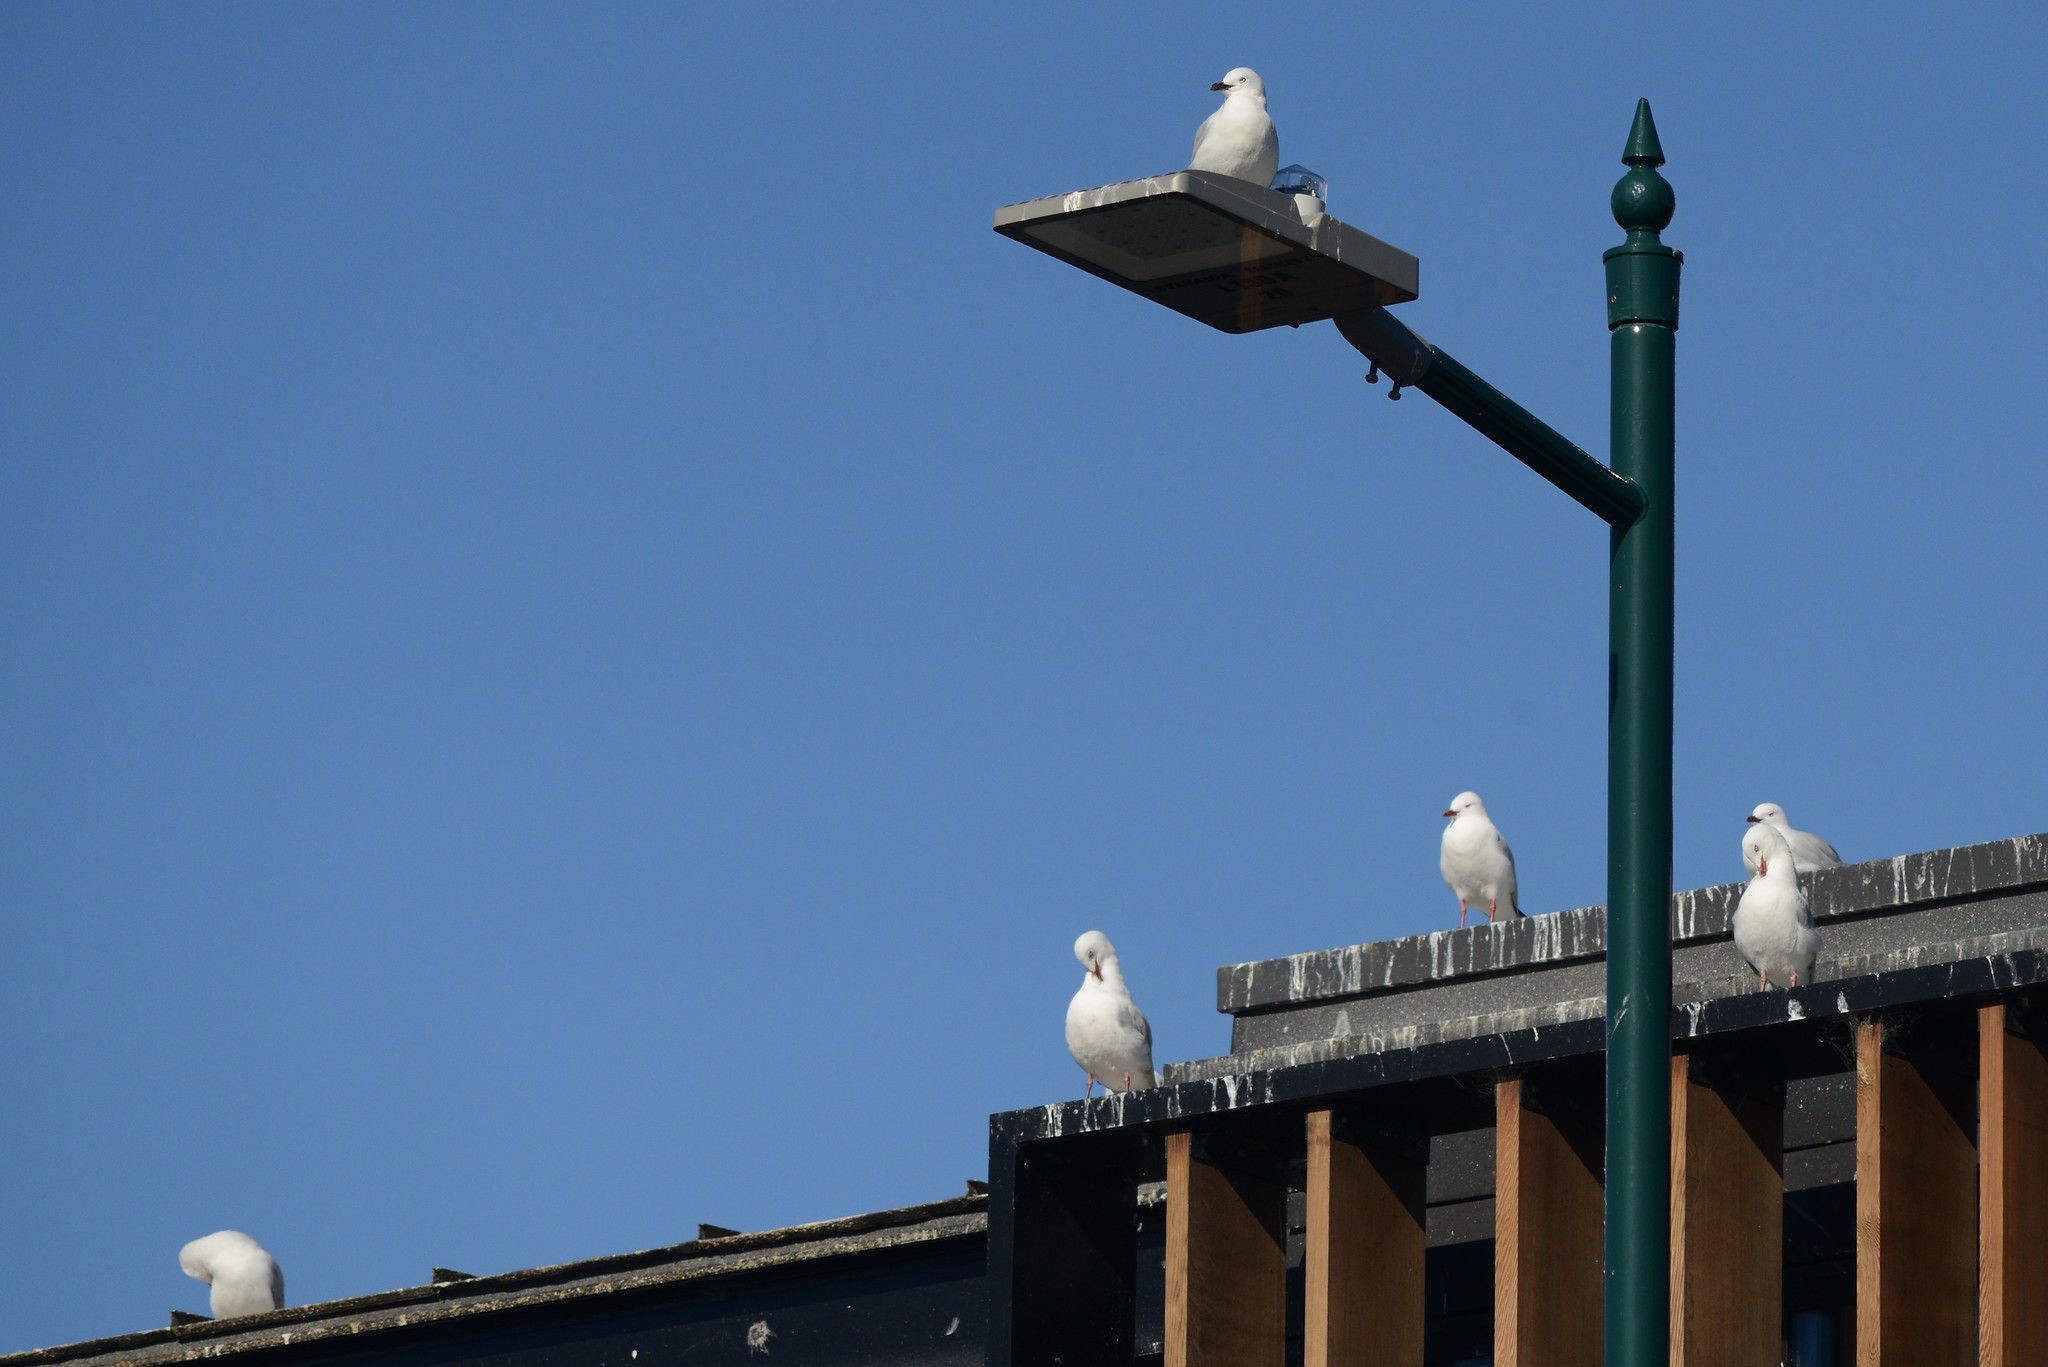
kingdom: Animalia
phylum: Chordata
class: Aves
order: Charadriiformes
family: Laridae
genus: Chroicocephalus
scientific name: Chroicocephalus novaehollandiae
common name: Silver gull
